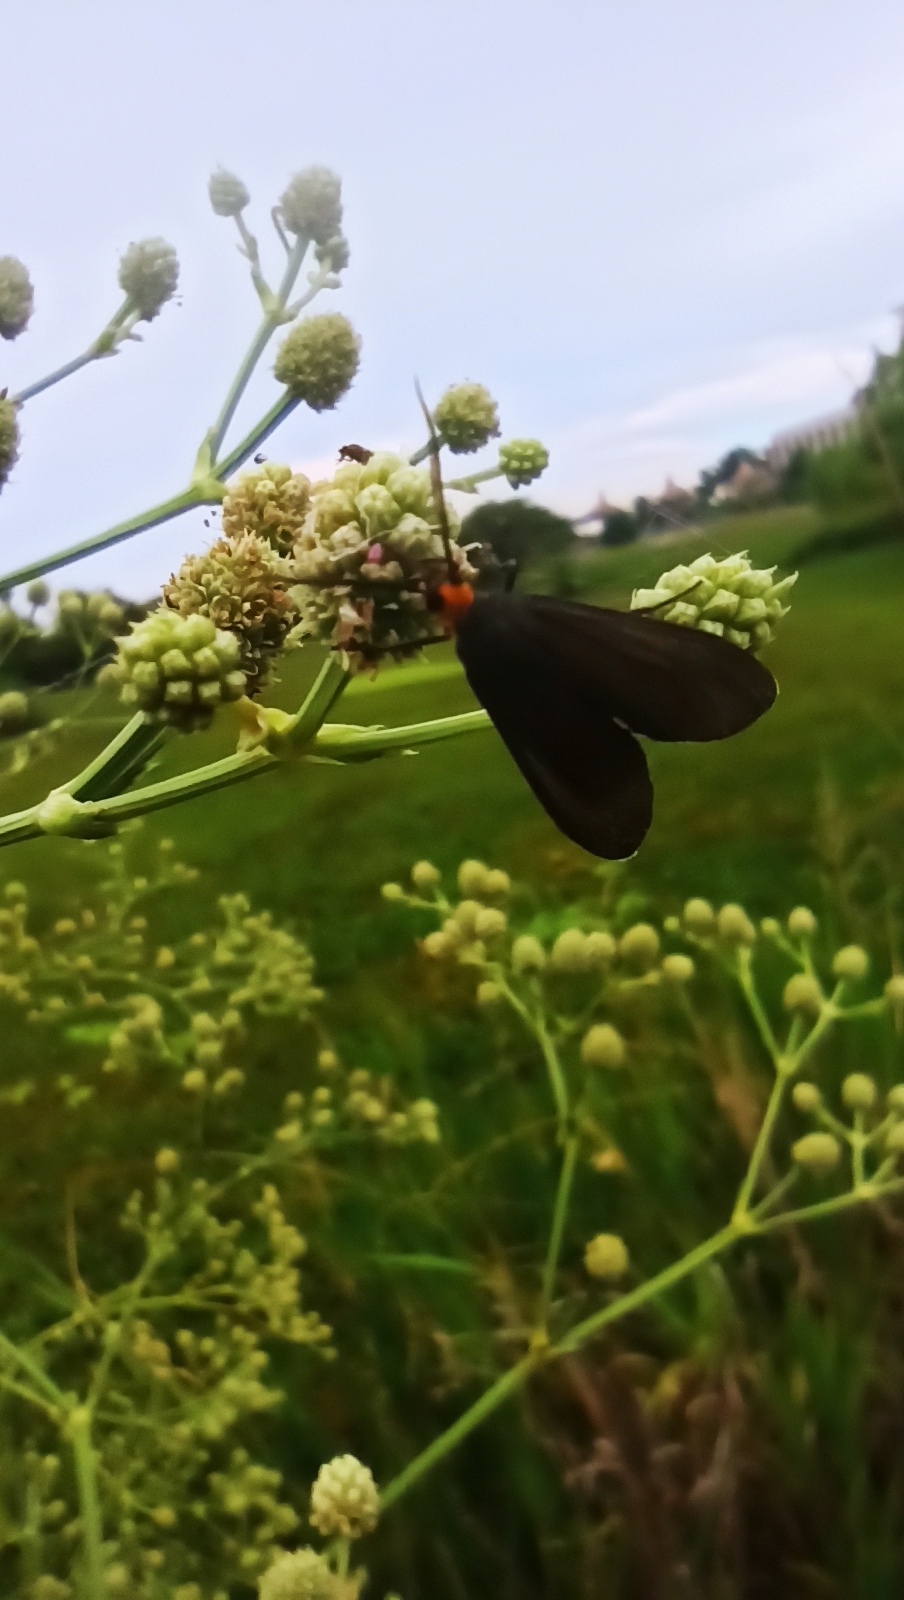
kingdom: Animalia
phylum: Arthropoda
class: Insecta
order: Lepidoptera
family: Erebidae
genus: Ctenucha
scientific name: Ctenucha rubriceps
